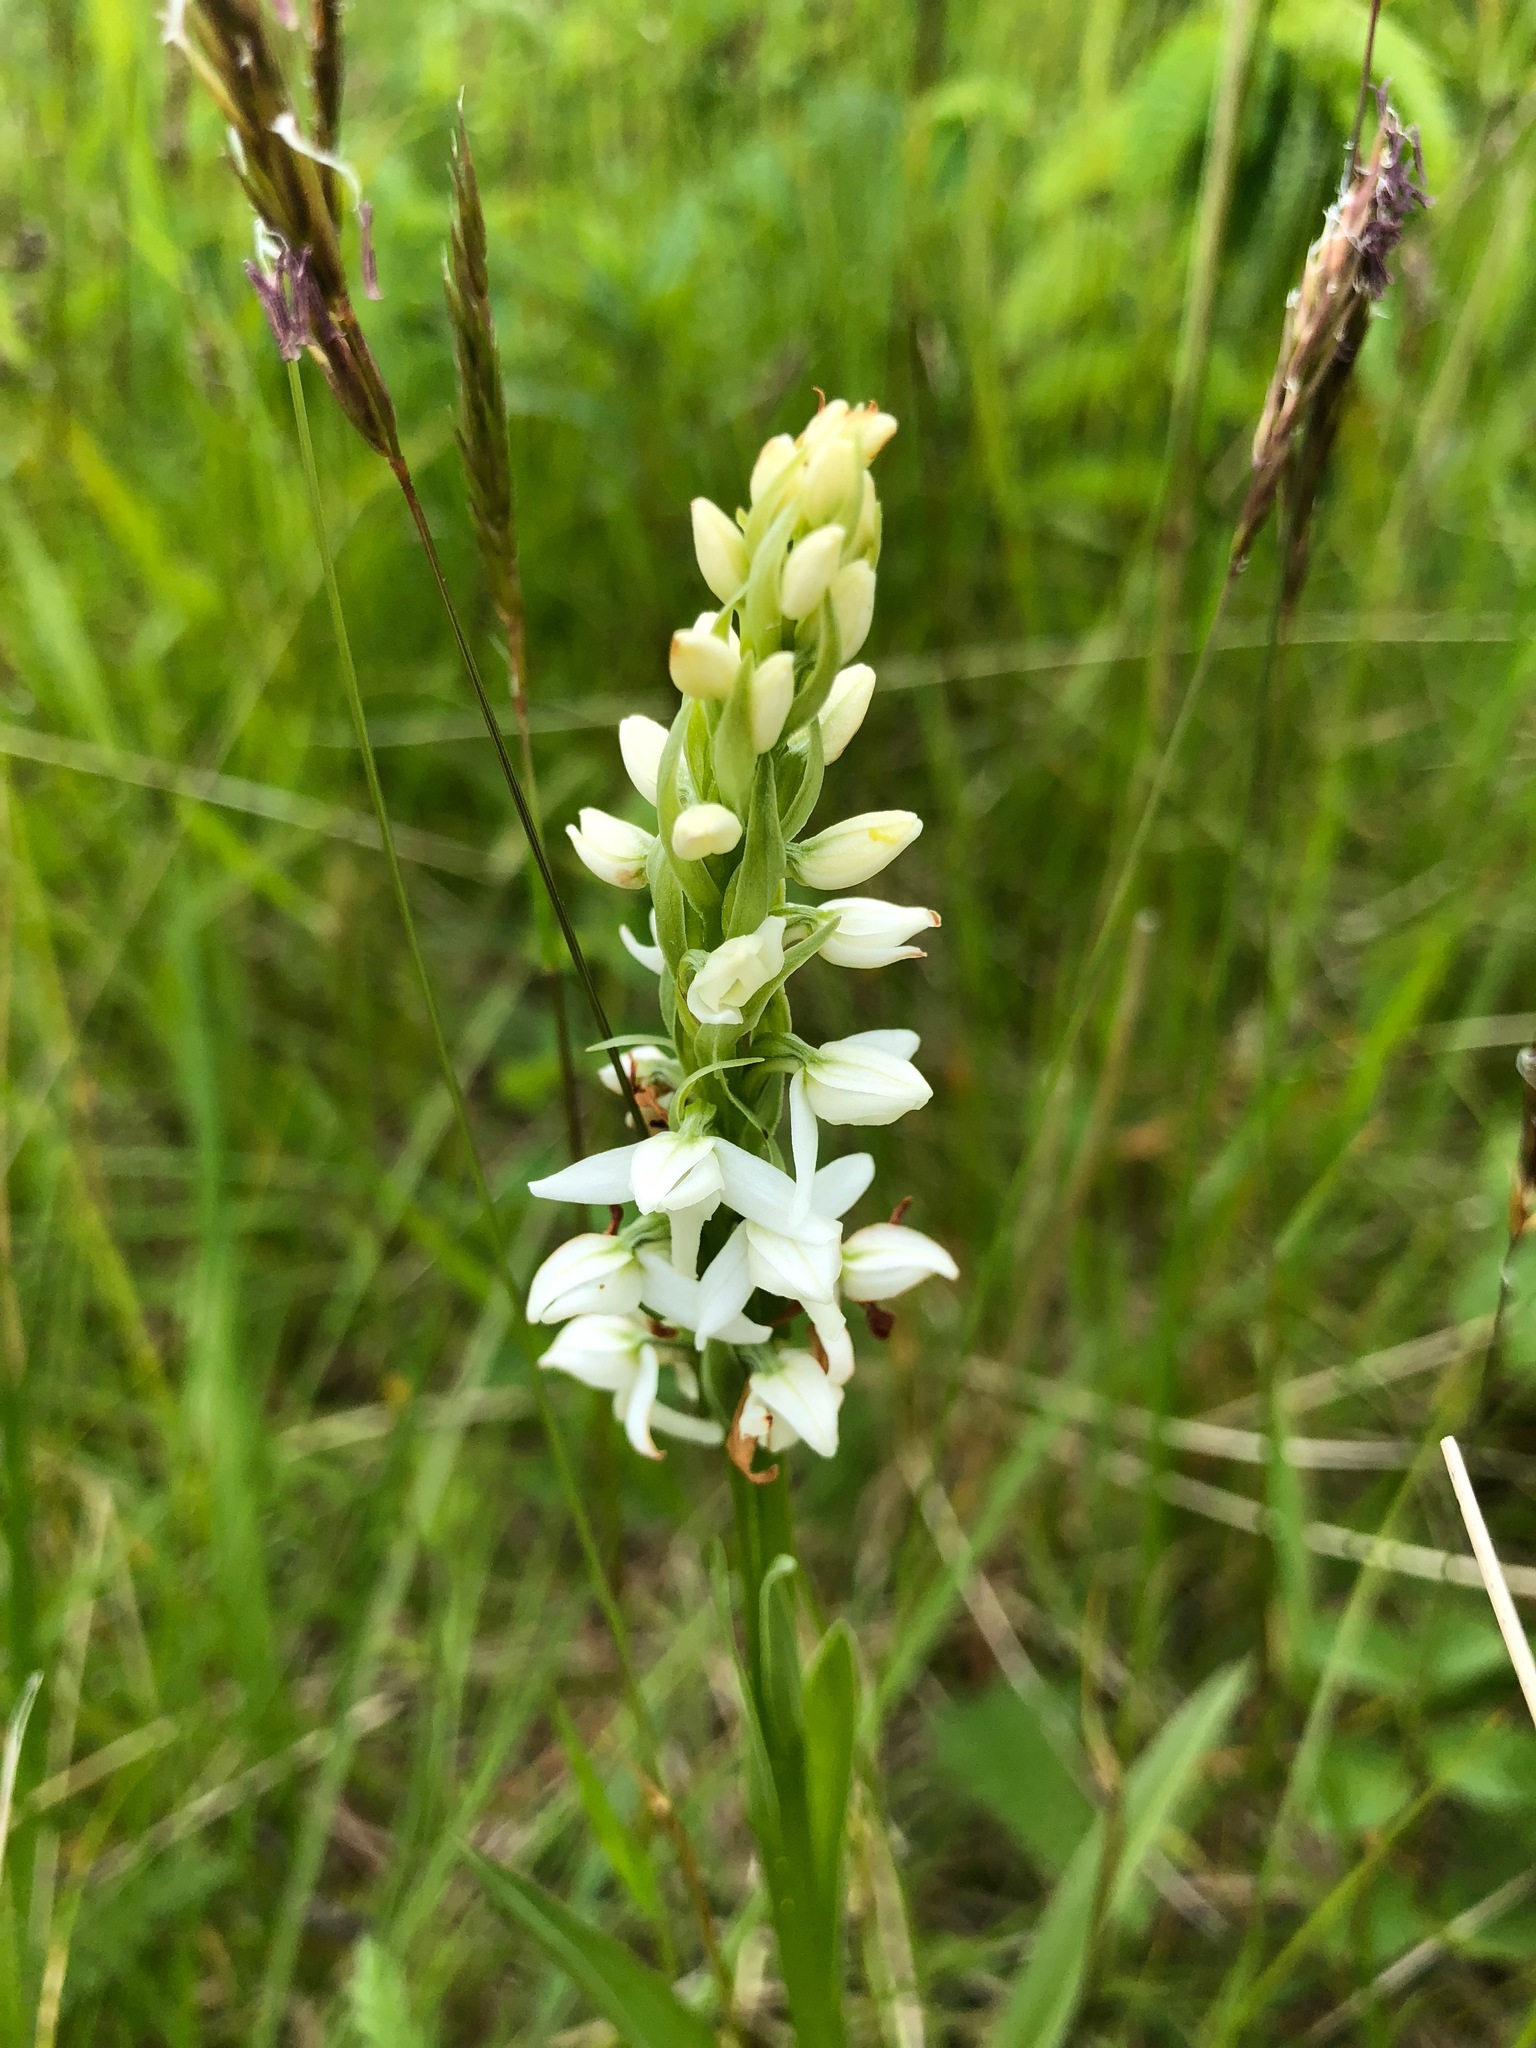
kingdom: Plantae
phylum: Tracheophyta
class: Liliopsida
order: Asparagales
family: Orchidaceae
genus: Platanthera
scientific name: Platanthera dilatata
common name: Bog candles
